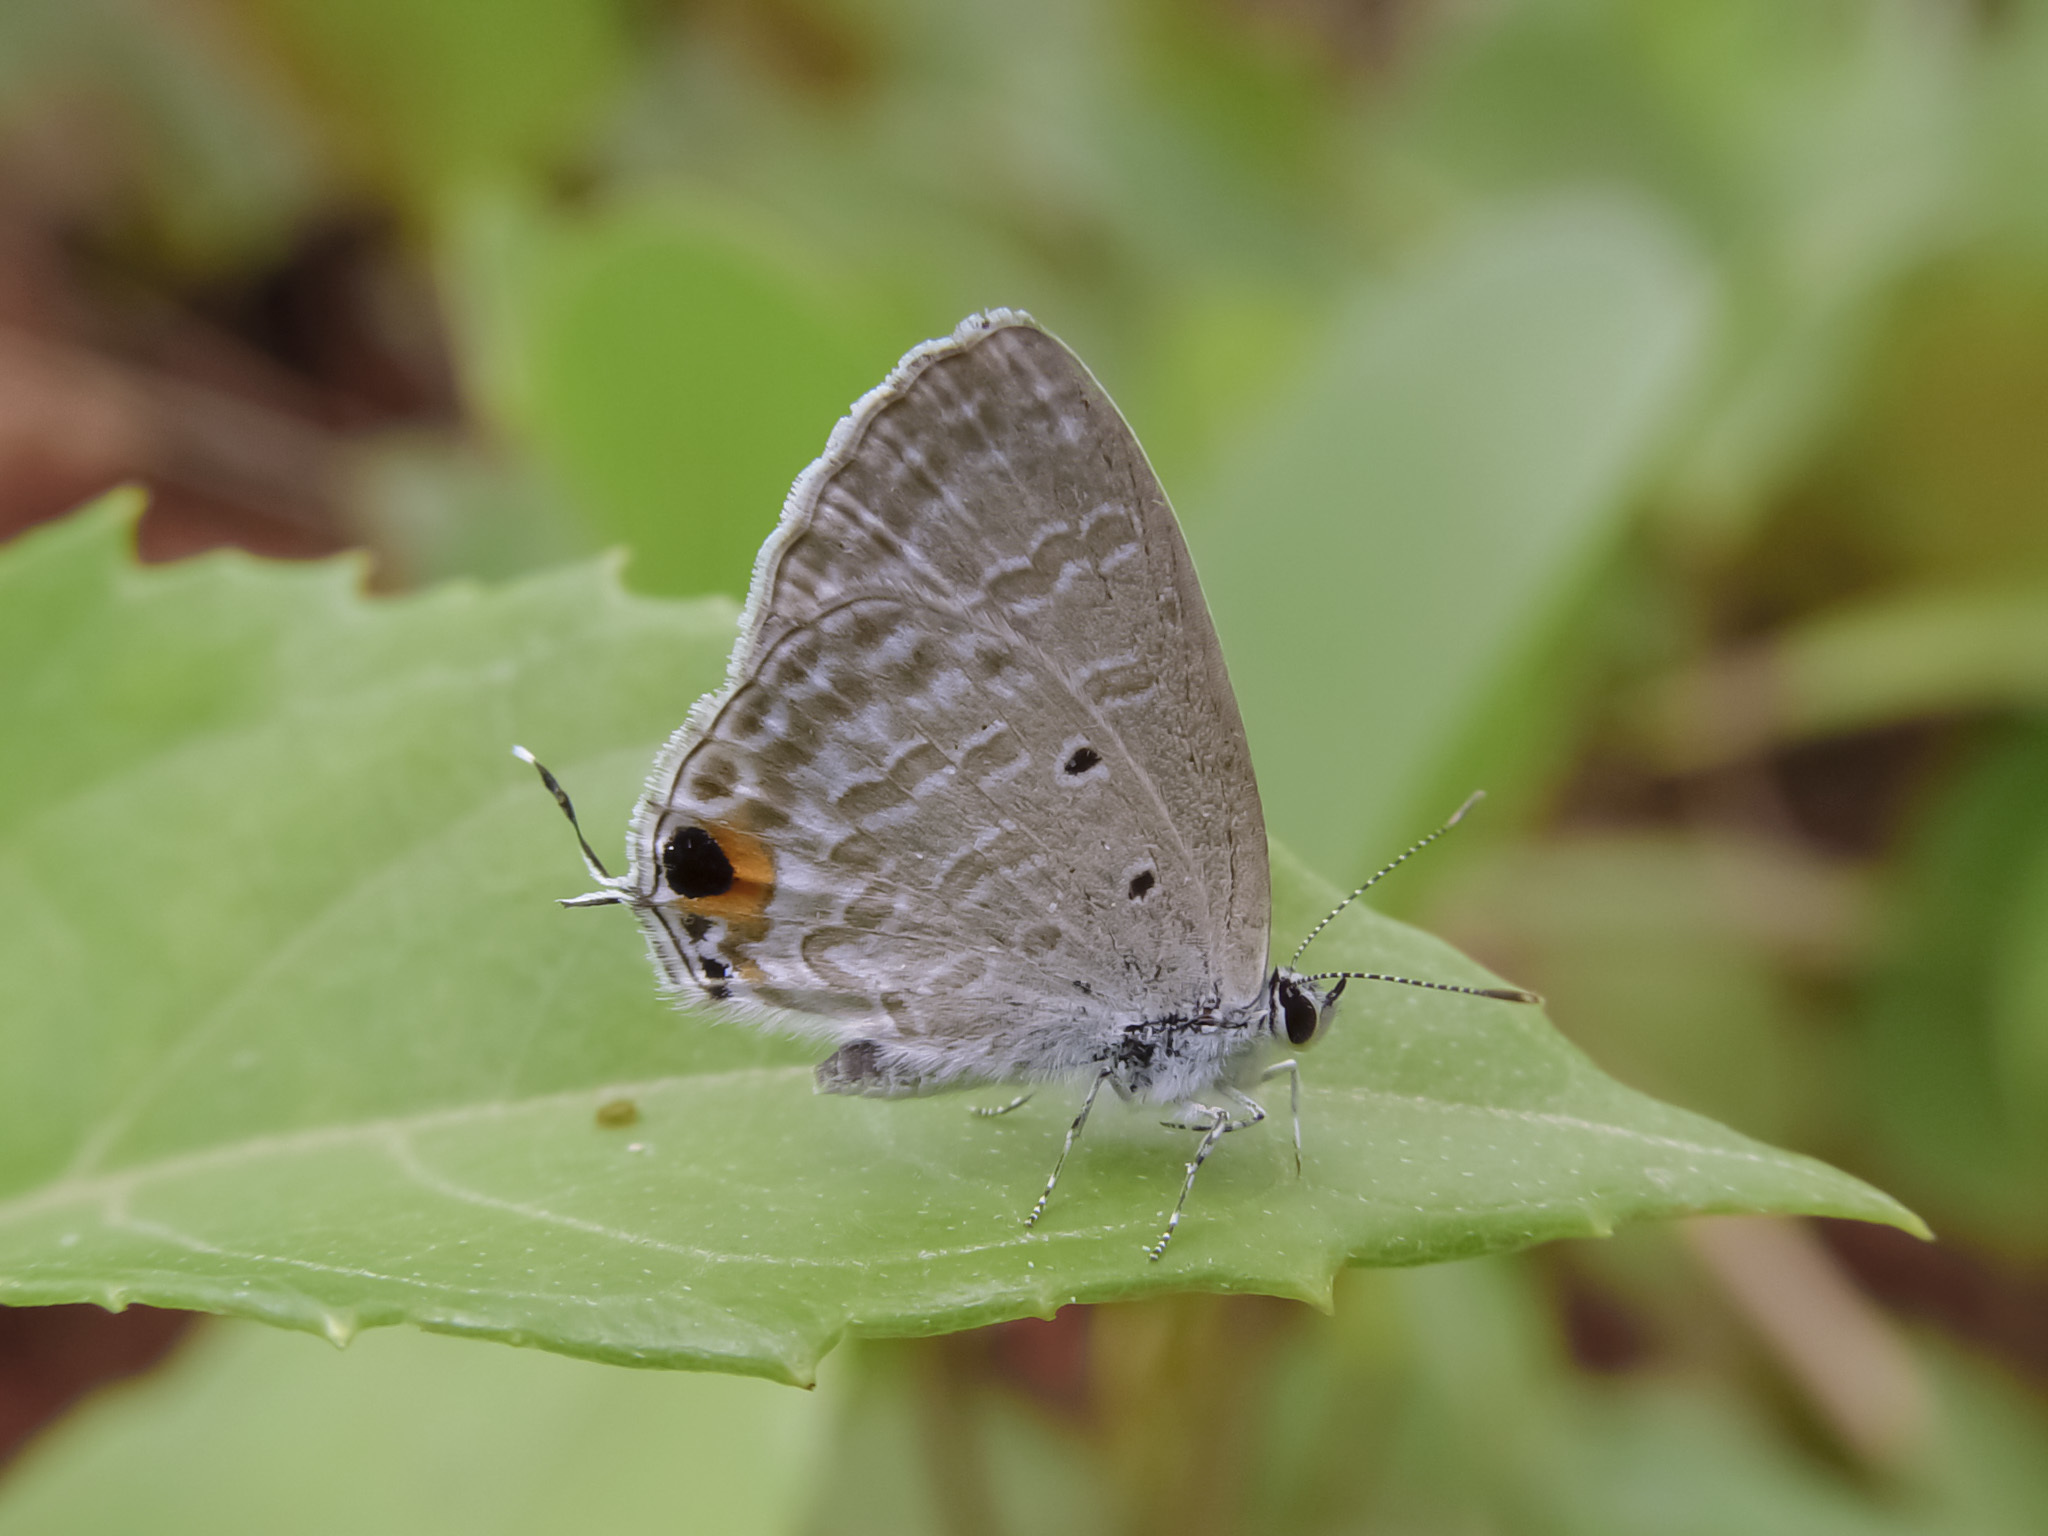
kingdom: Animalia
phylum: Arthropoda
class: Insecta
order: Lepidoptera
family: Lycaenidae
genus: Catochrysops
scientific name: Catochrysops strabo
